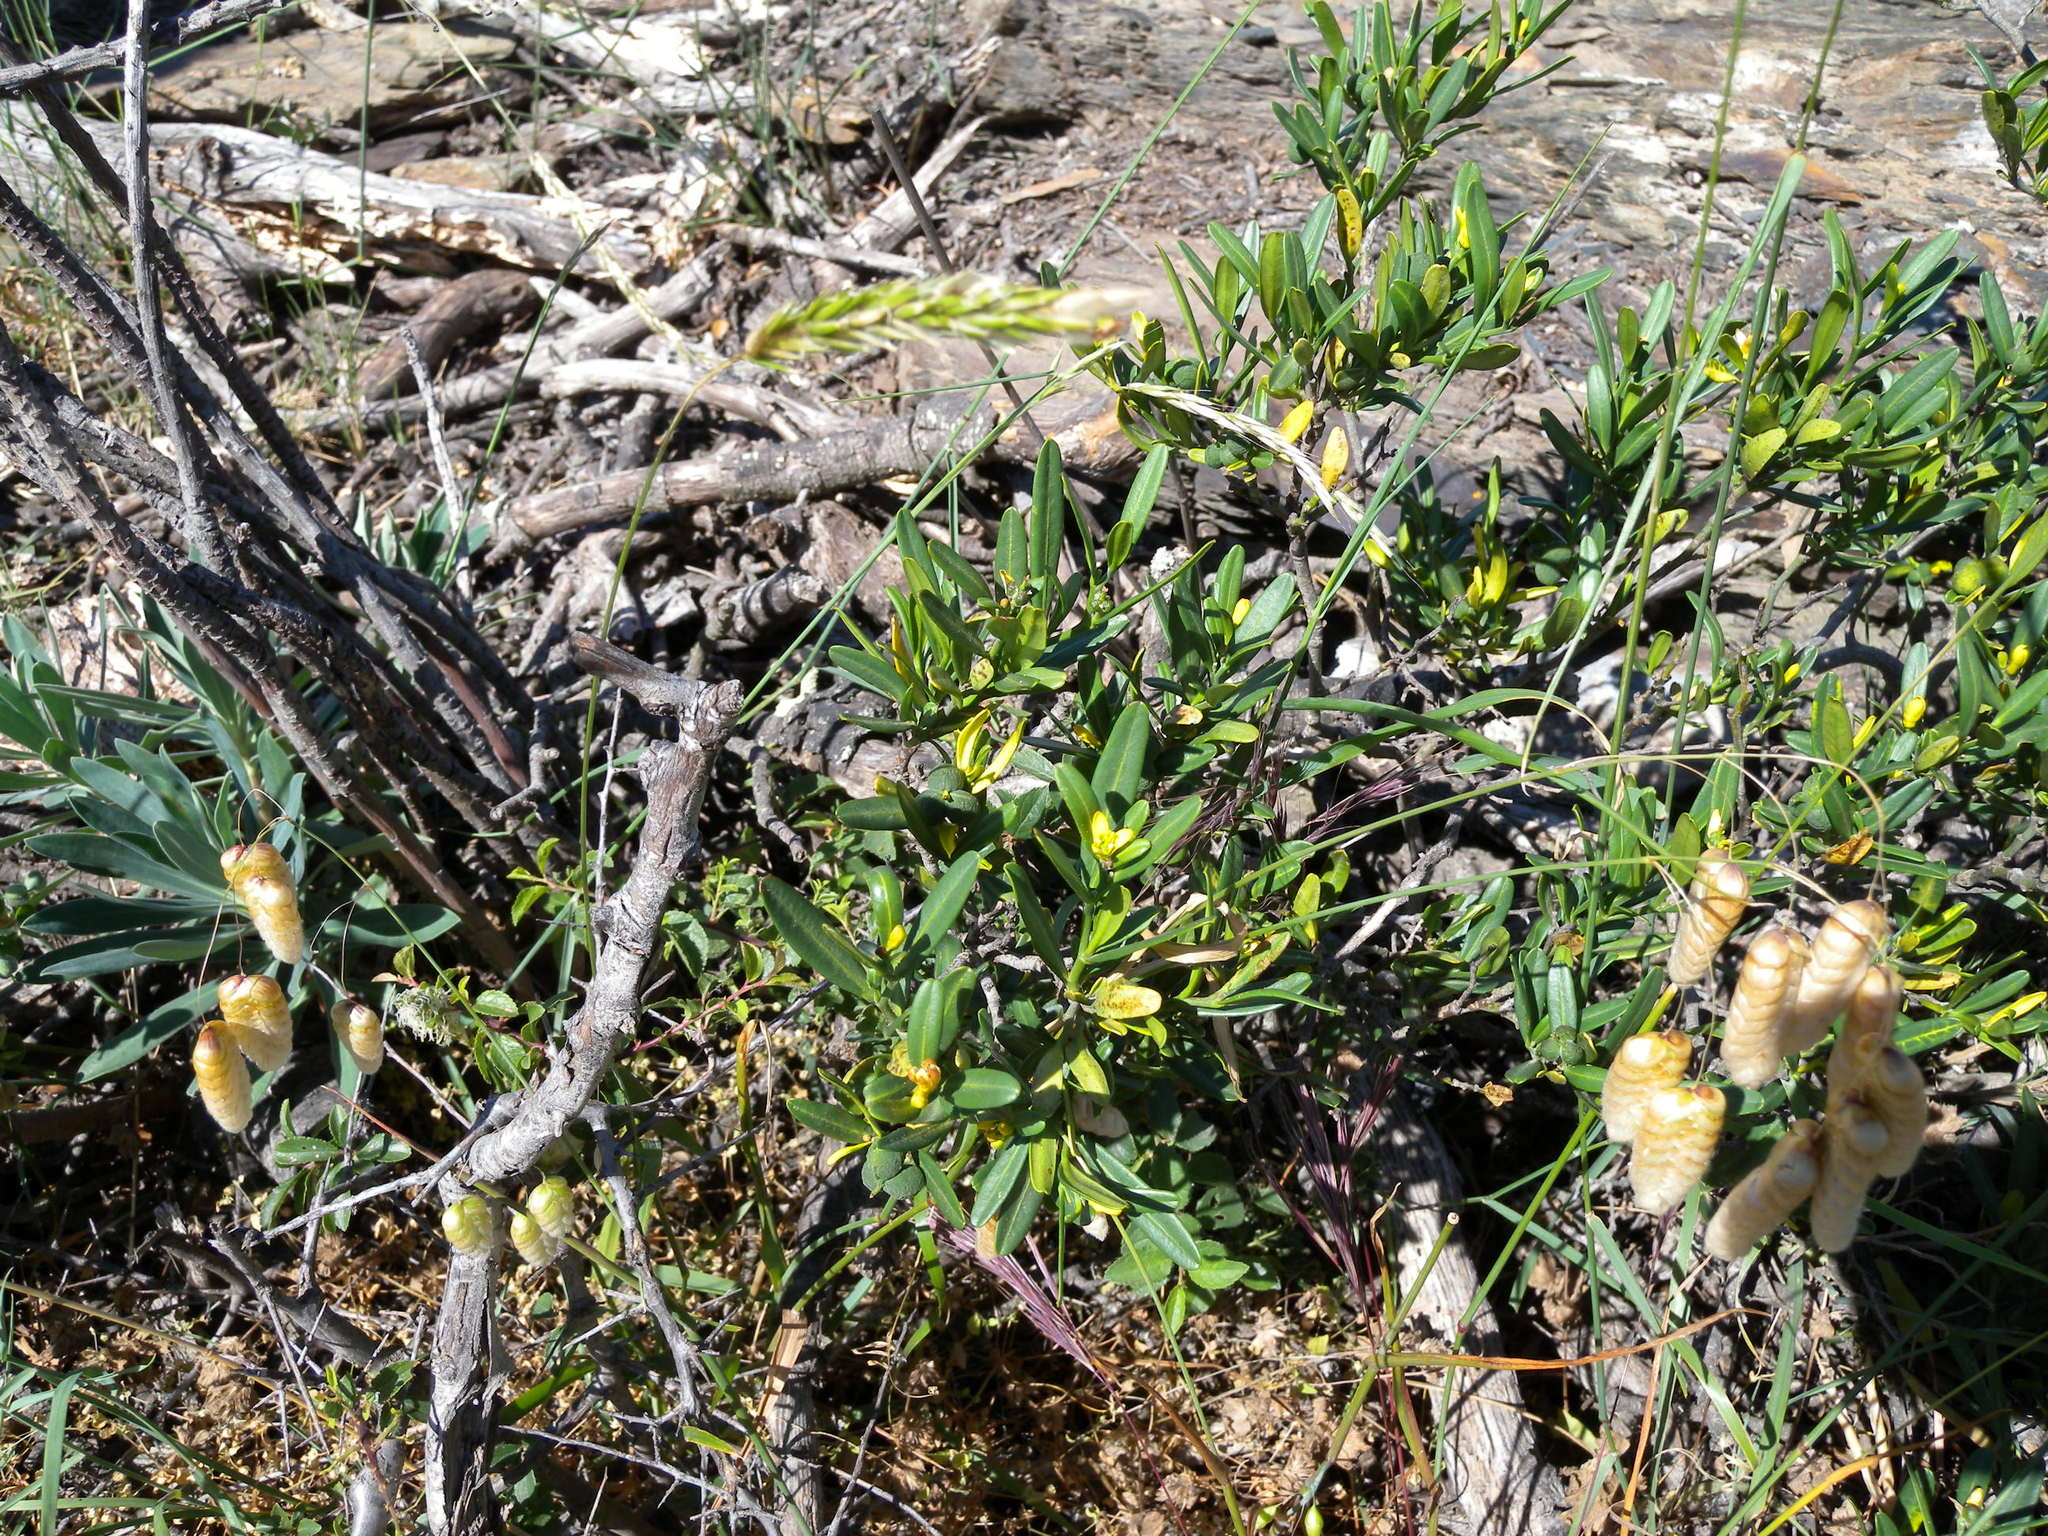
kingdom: Plantae
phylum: Tracheophyta
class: Magnoliopsida
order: Sapindales
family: Rutaceae
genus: Cneorum
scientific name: Cneorum tricoccon
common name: Spurge olive
